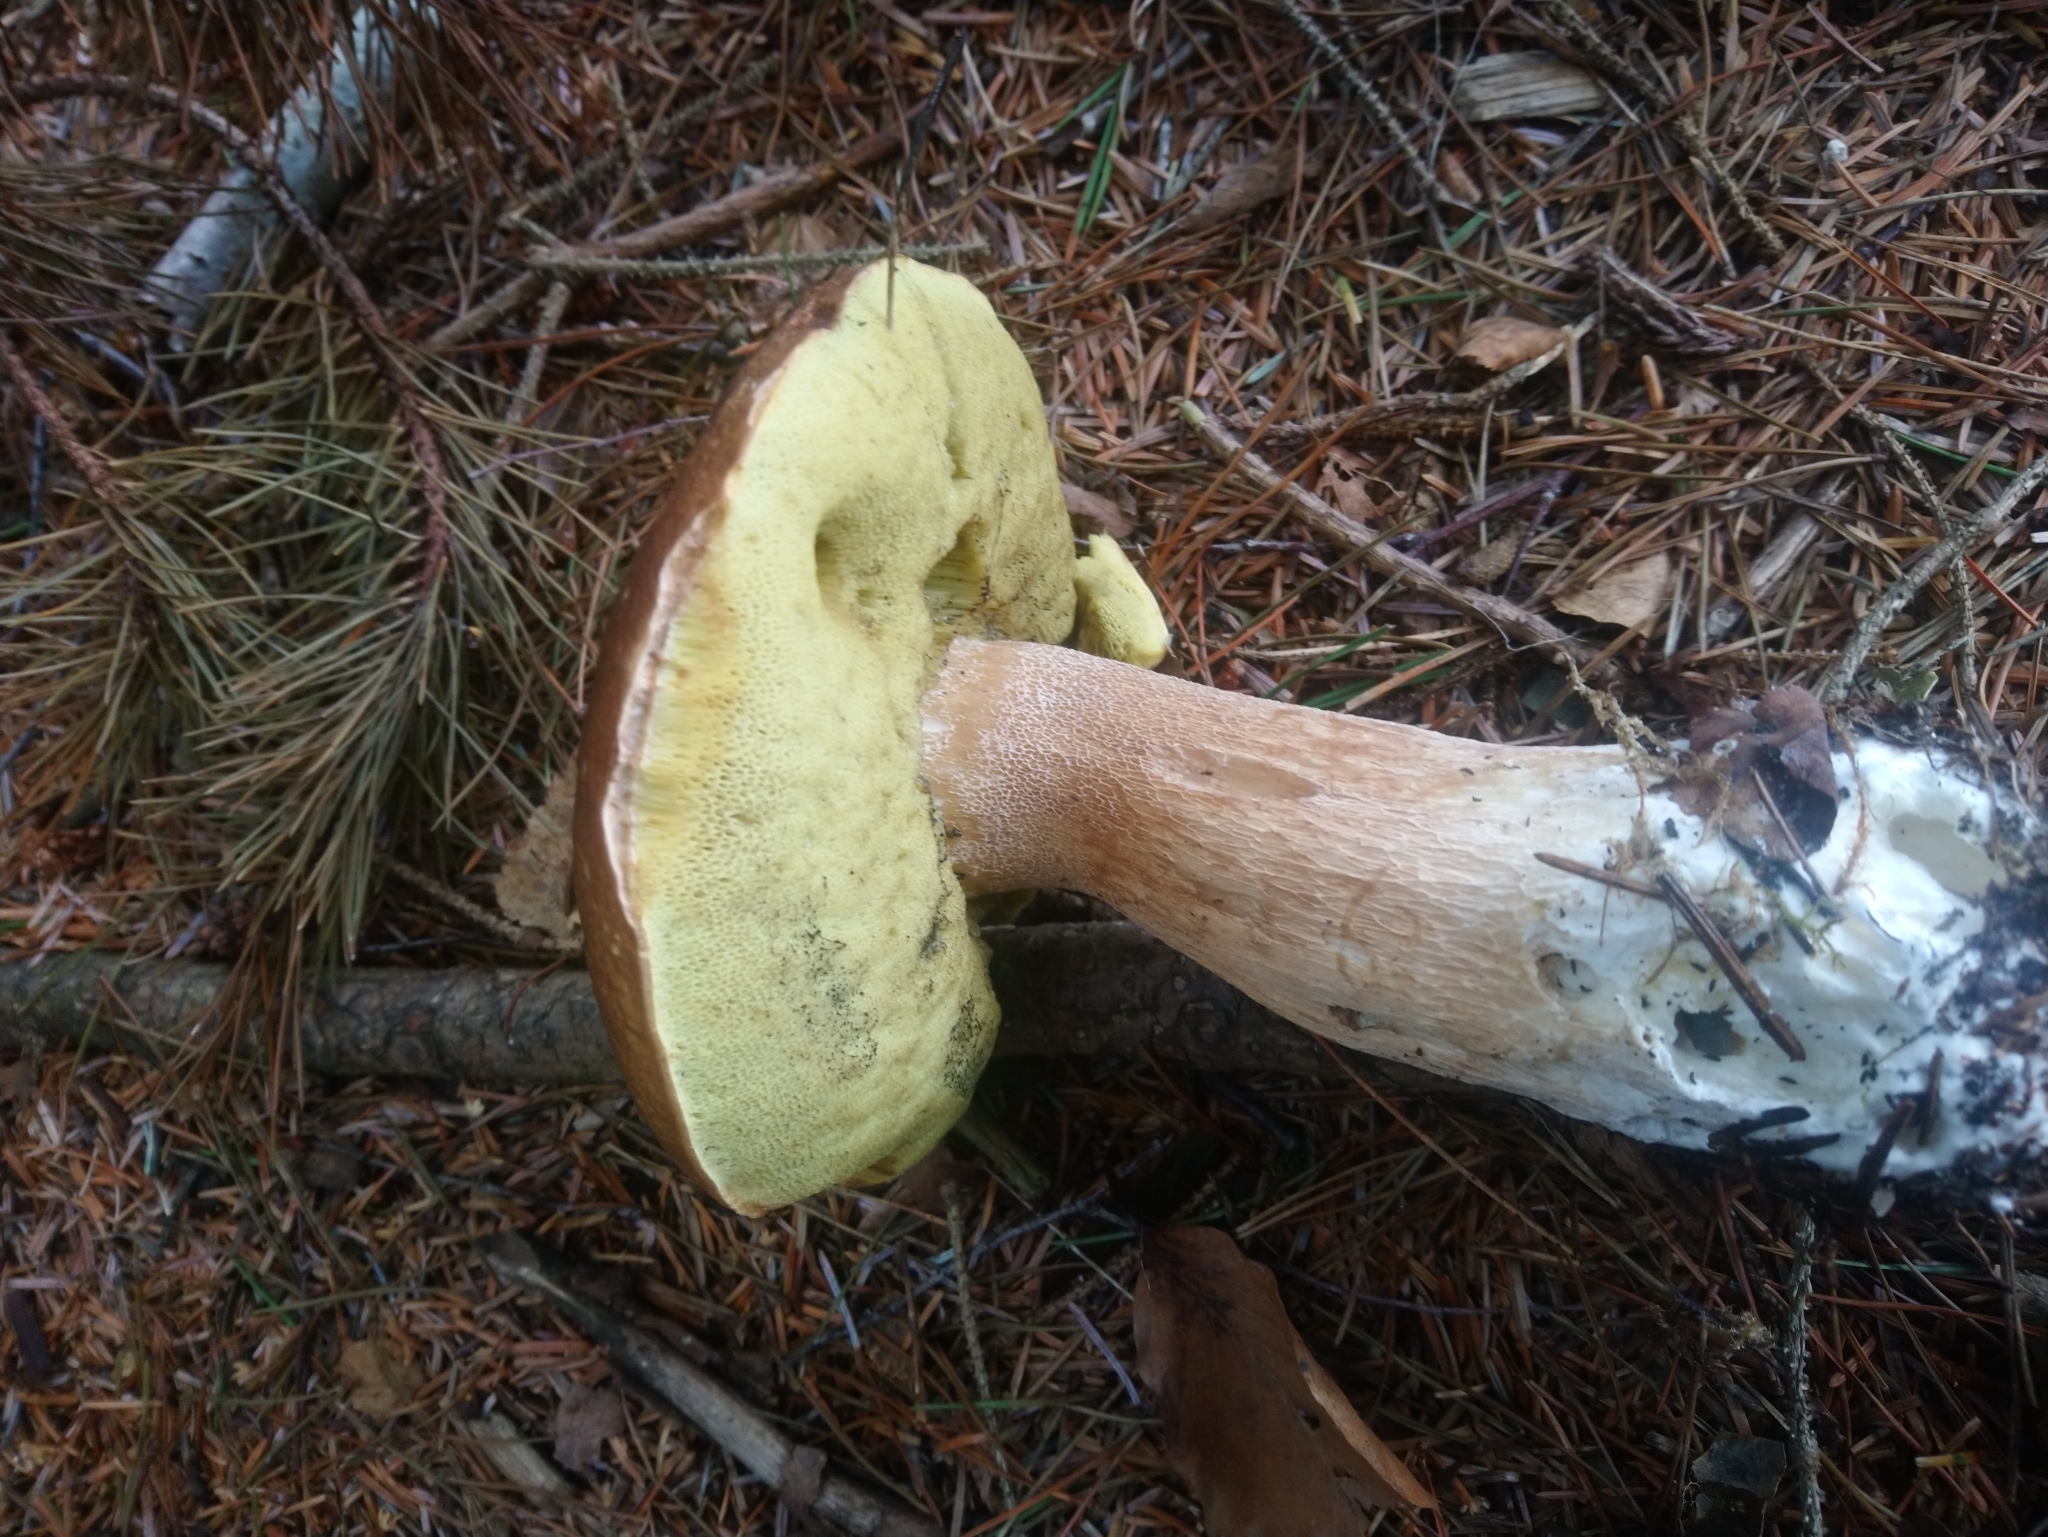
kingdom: Fungi
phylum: Basidiomycota
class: Agaricomycetes
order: Boletales
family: Boletaceae
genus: Boletus
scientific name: Boletus edulis
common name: Cep
